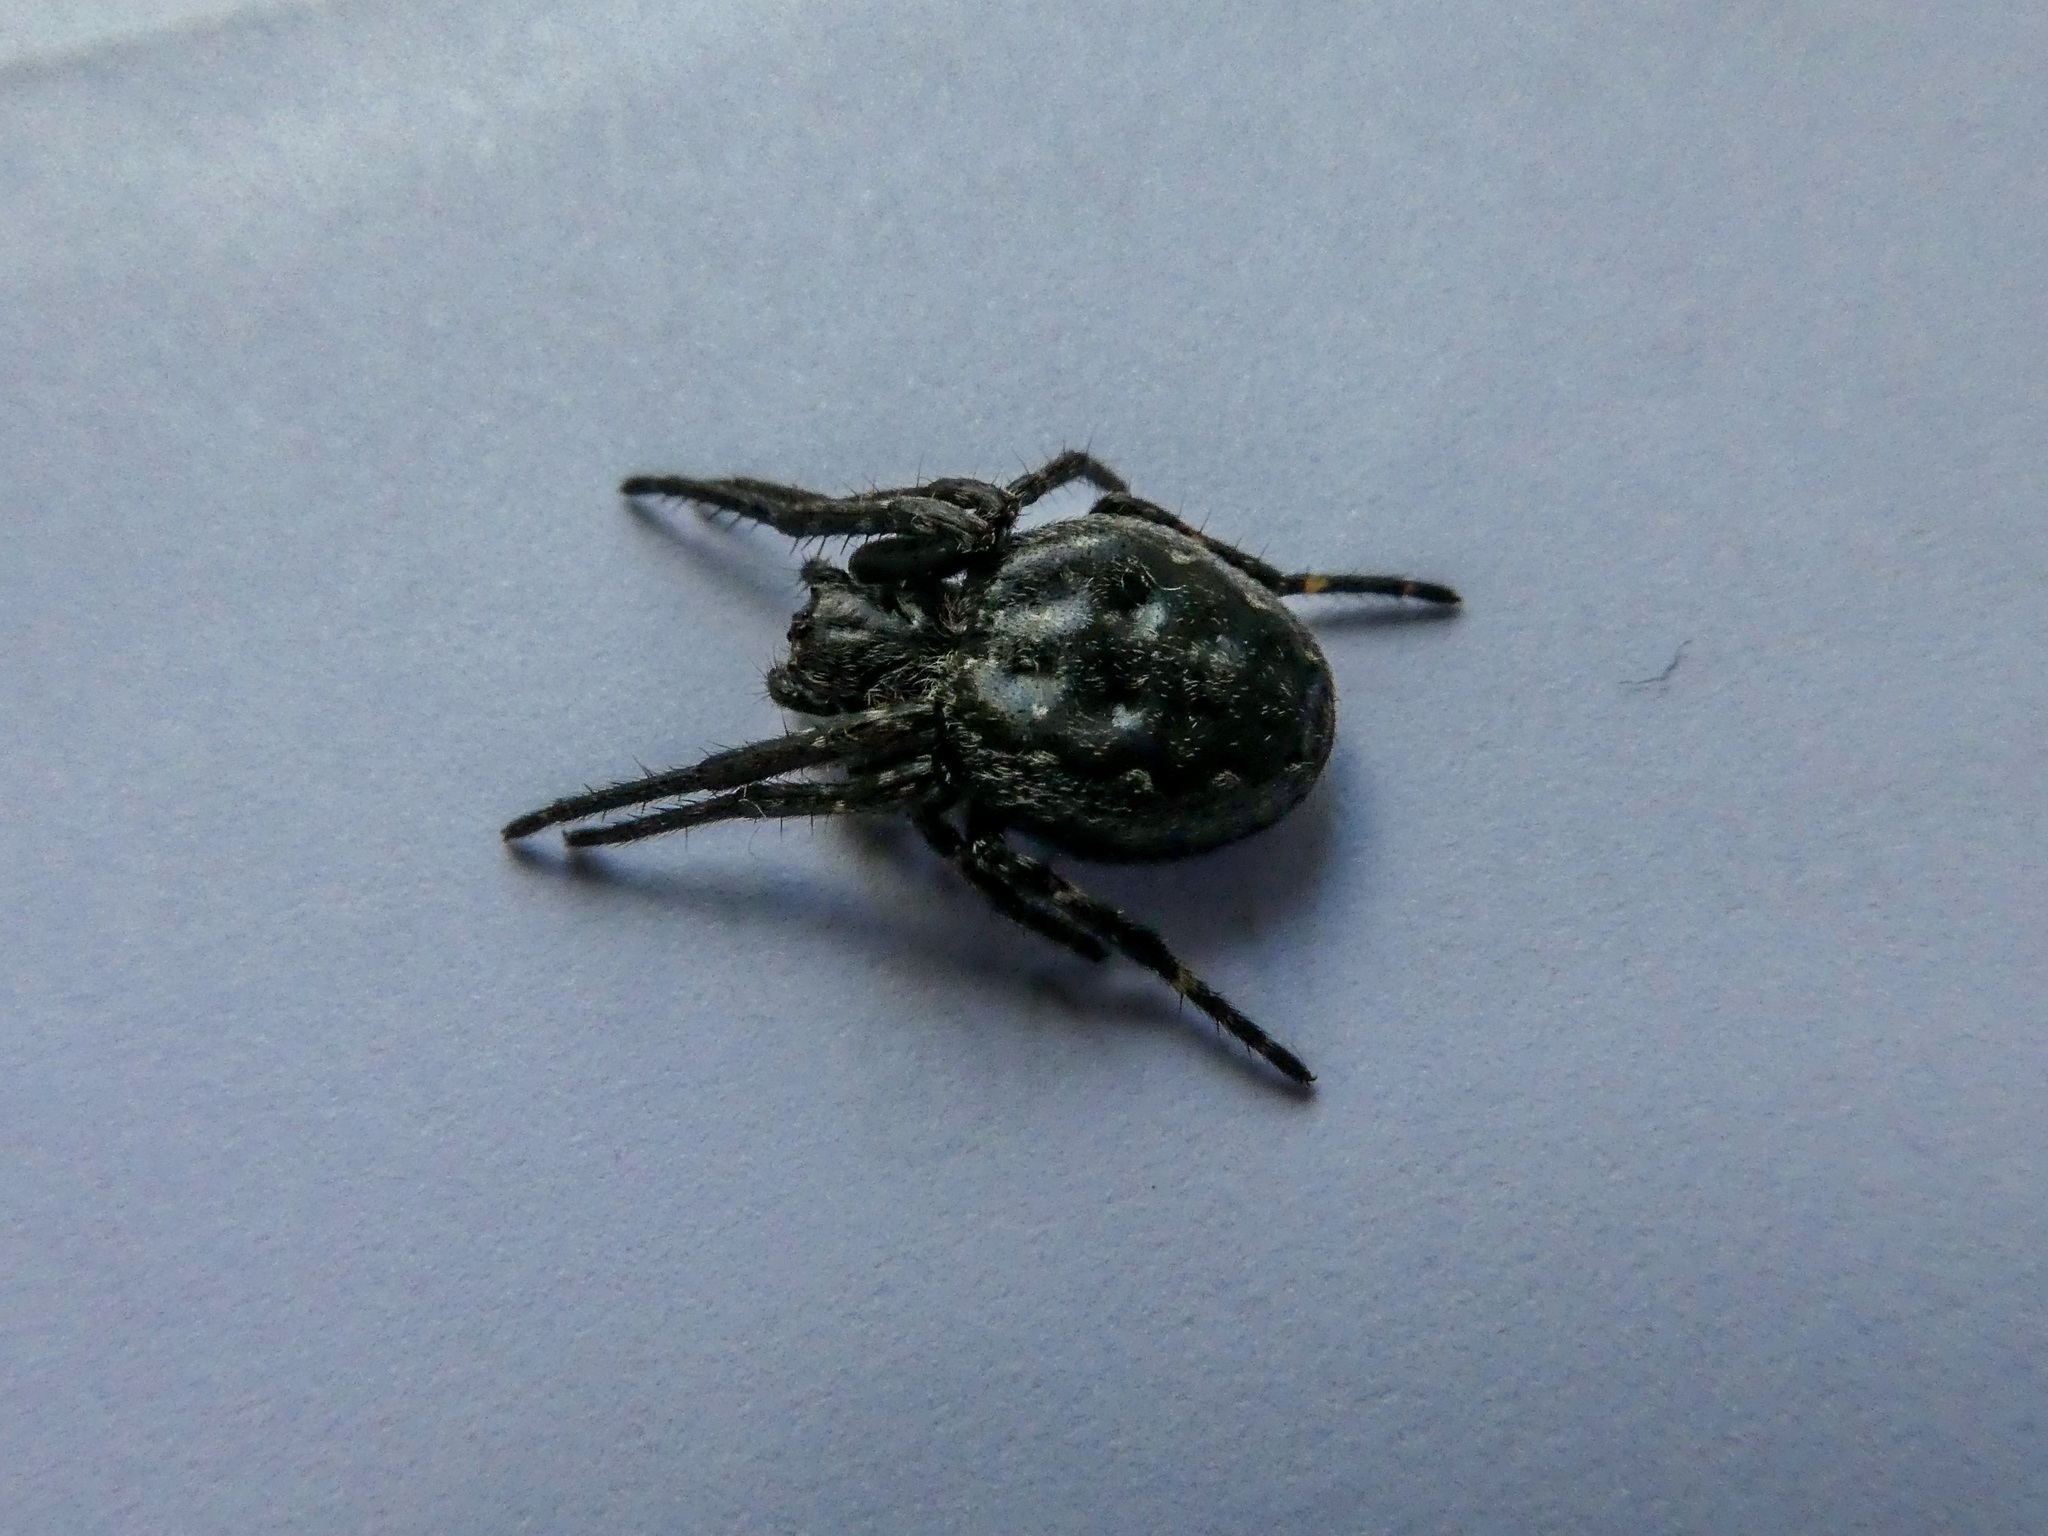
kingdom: Animalia
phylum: Arthropoda
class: Arachnida
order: Araneae
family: Araneidae
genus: Nuctenea
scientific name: Nuctenea umbratica
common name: Toad spider
